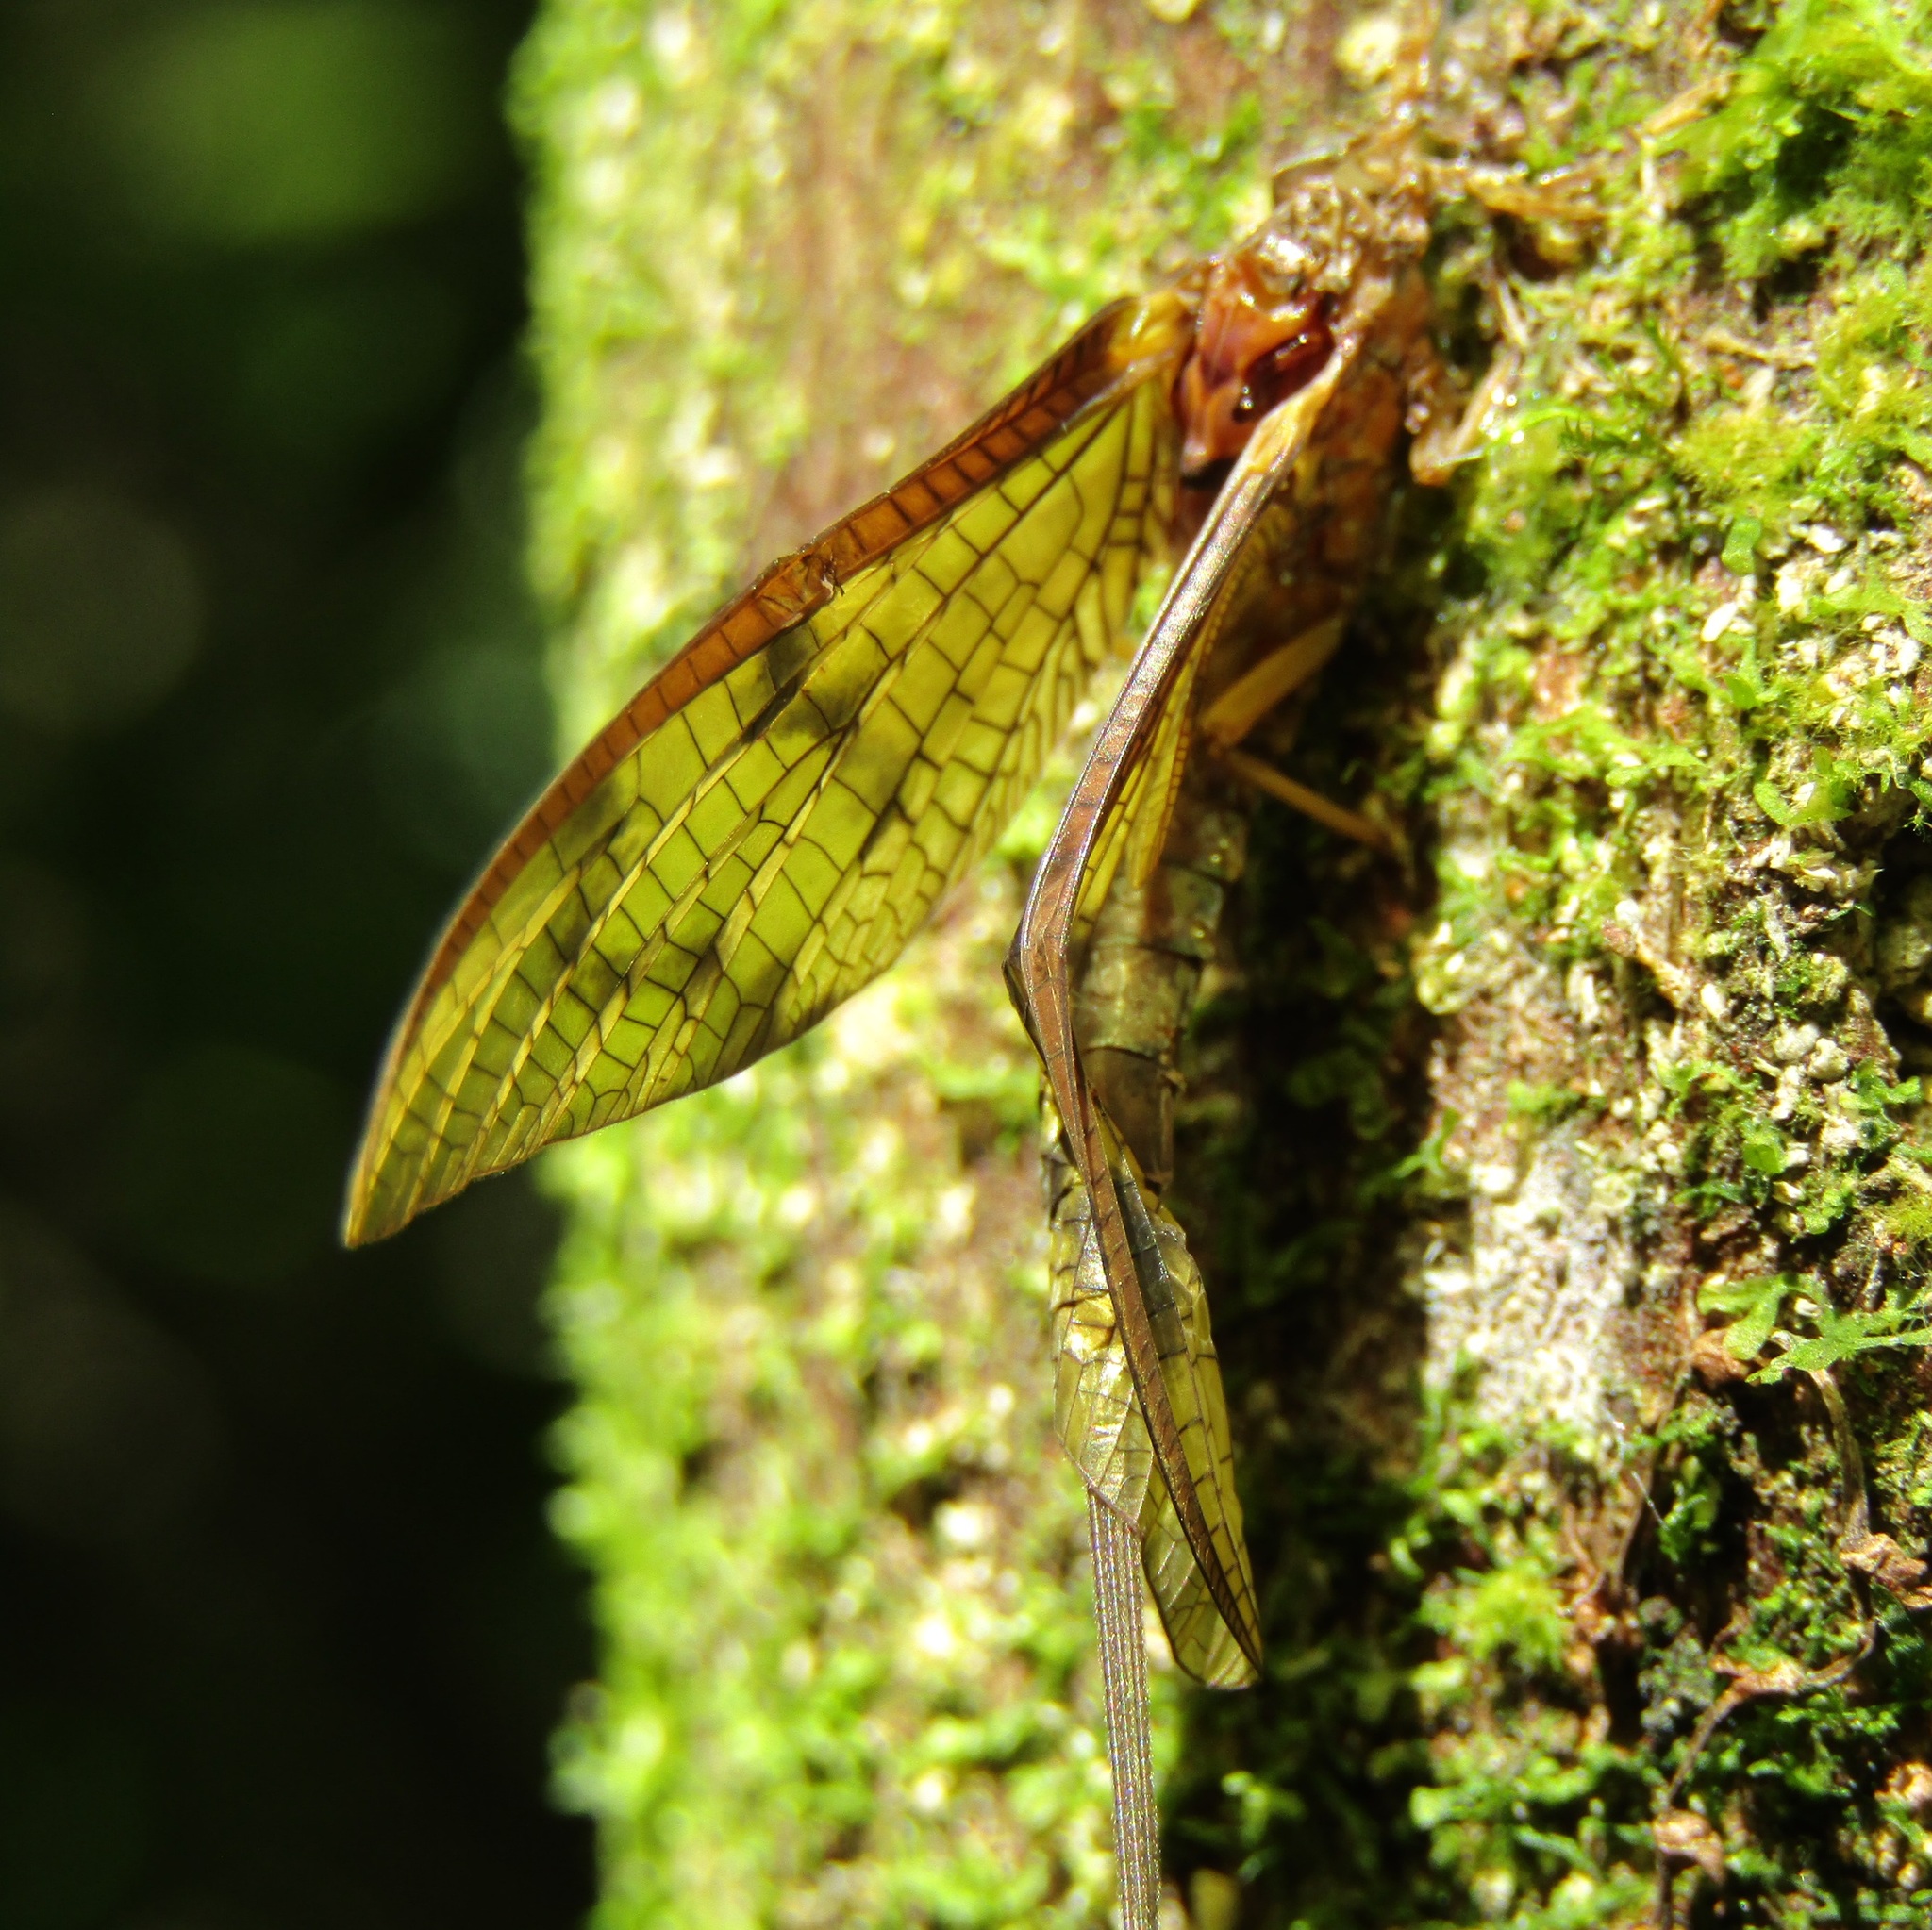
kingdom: Animalia
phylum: Arthropoda
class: Insecta
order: Ephemeroptera
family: Ichthybotidae
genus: Ichthybotus
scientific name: Ichthybotus hudsoni
